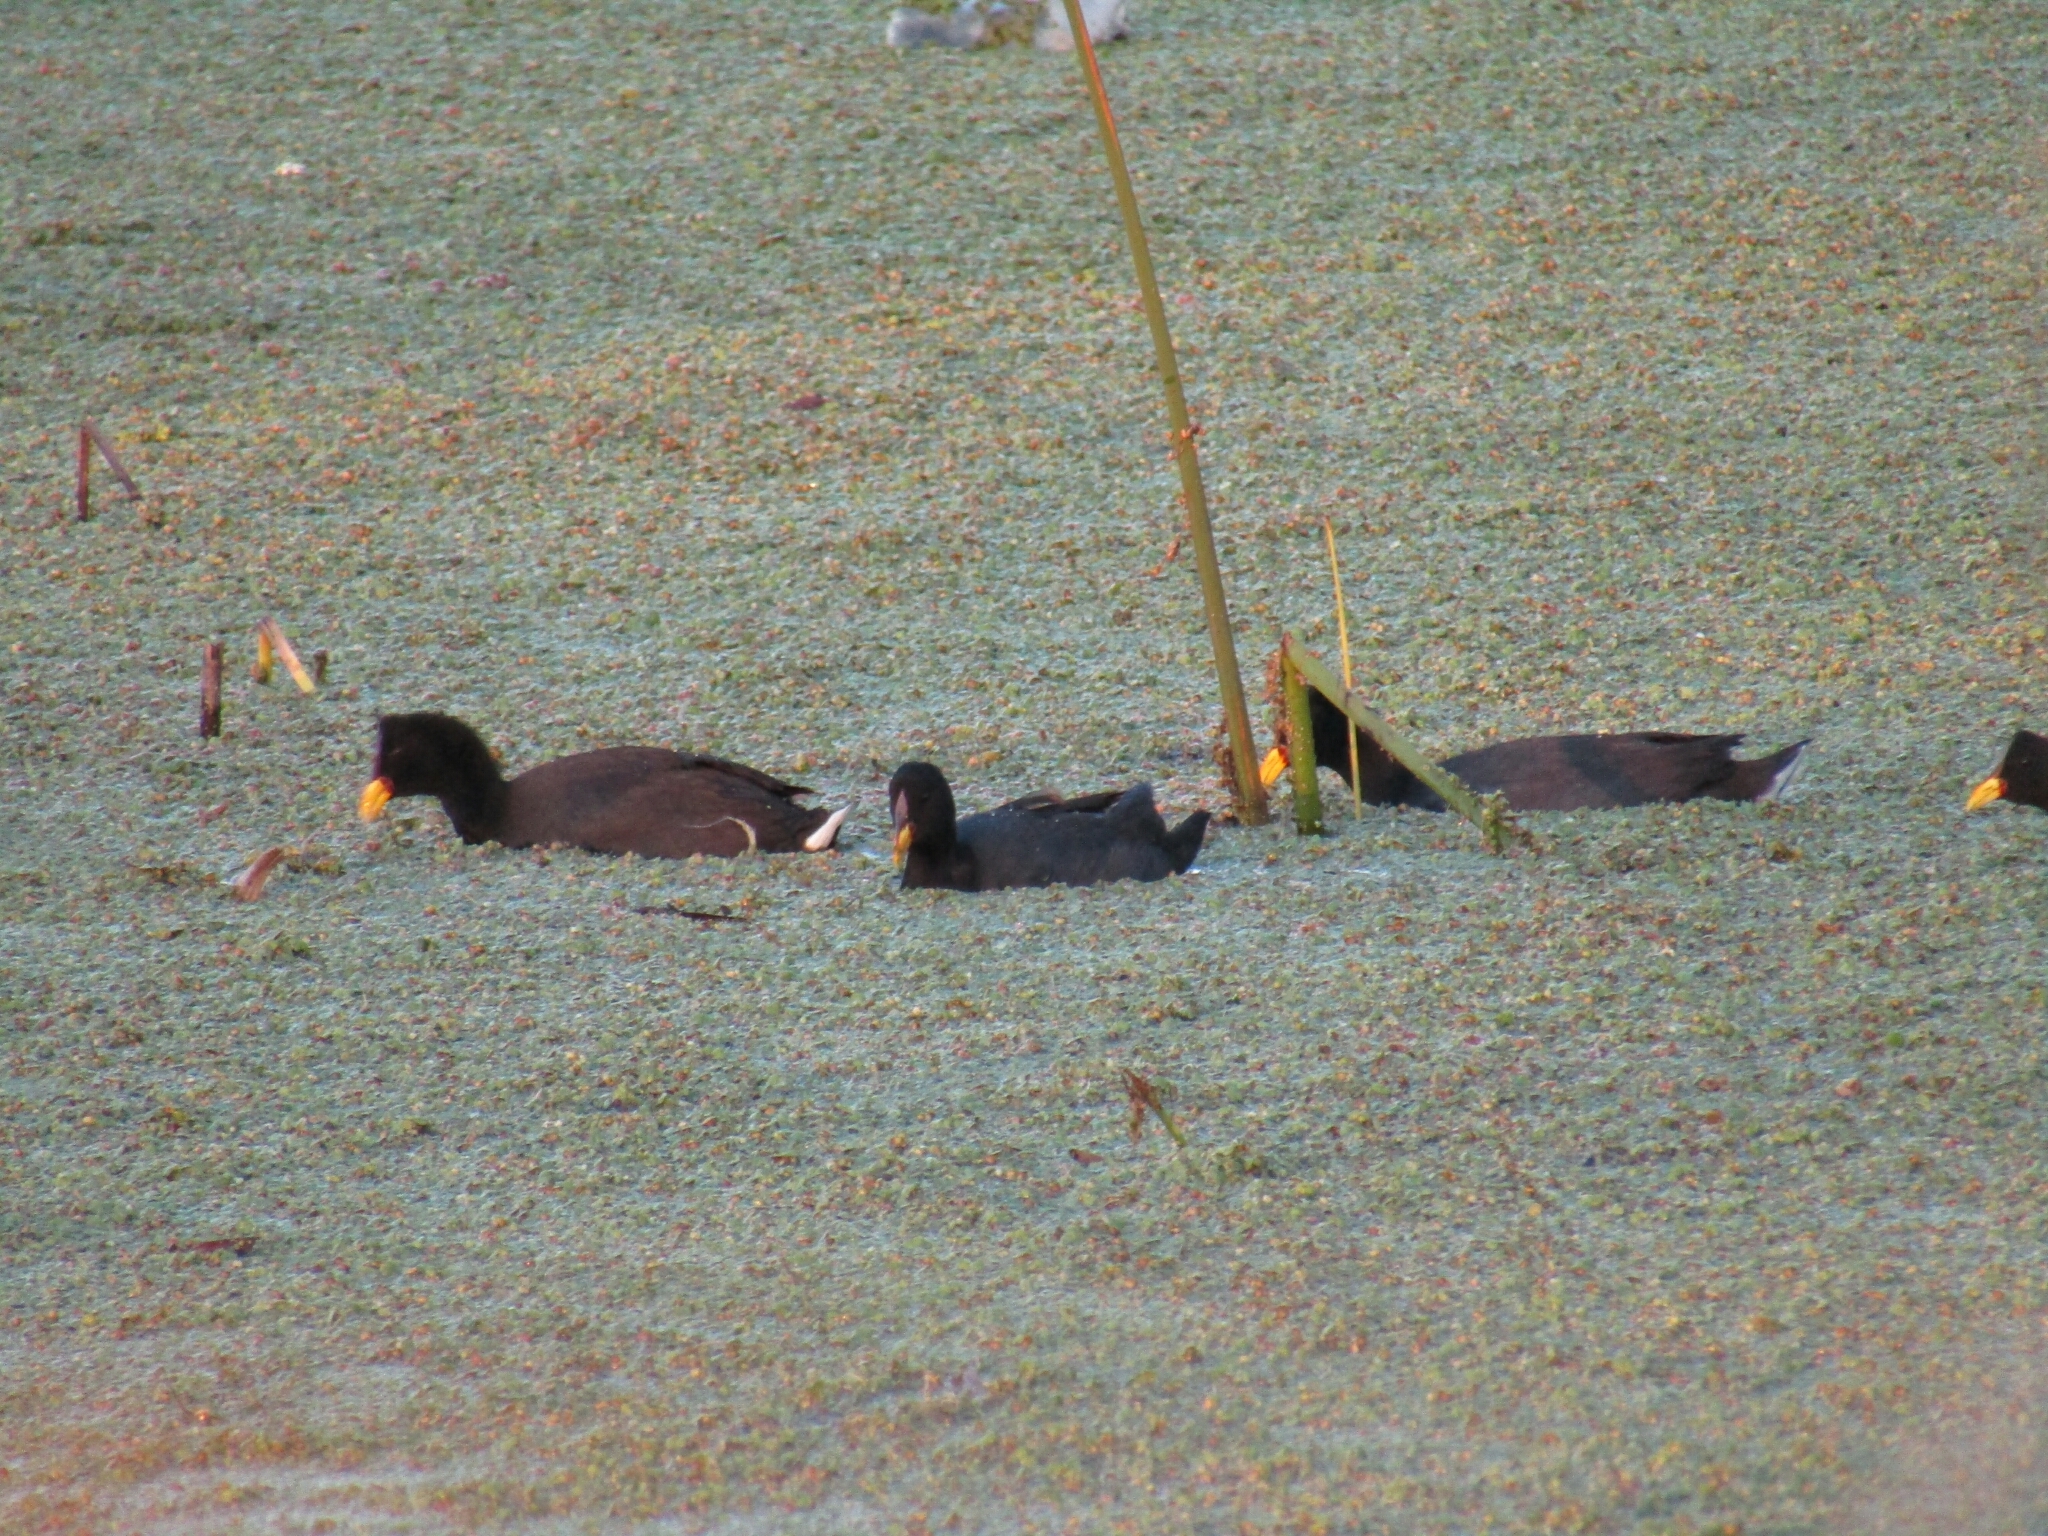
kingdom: Animalia
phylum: Chordata
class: Aves
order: Gruiformes
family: Rallidae
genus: Fulica
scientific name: Fulica rufifrons
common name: Red-fronted coot
